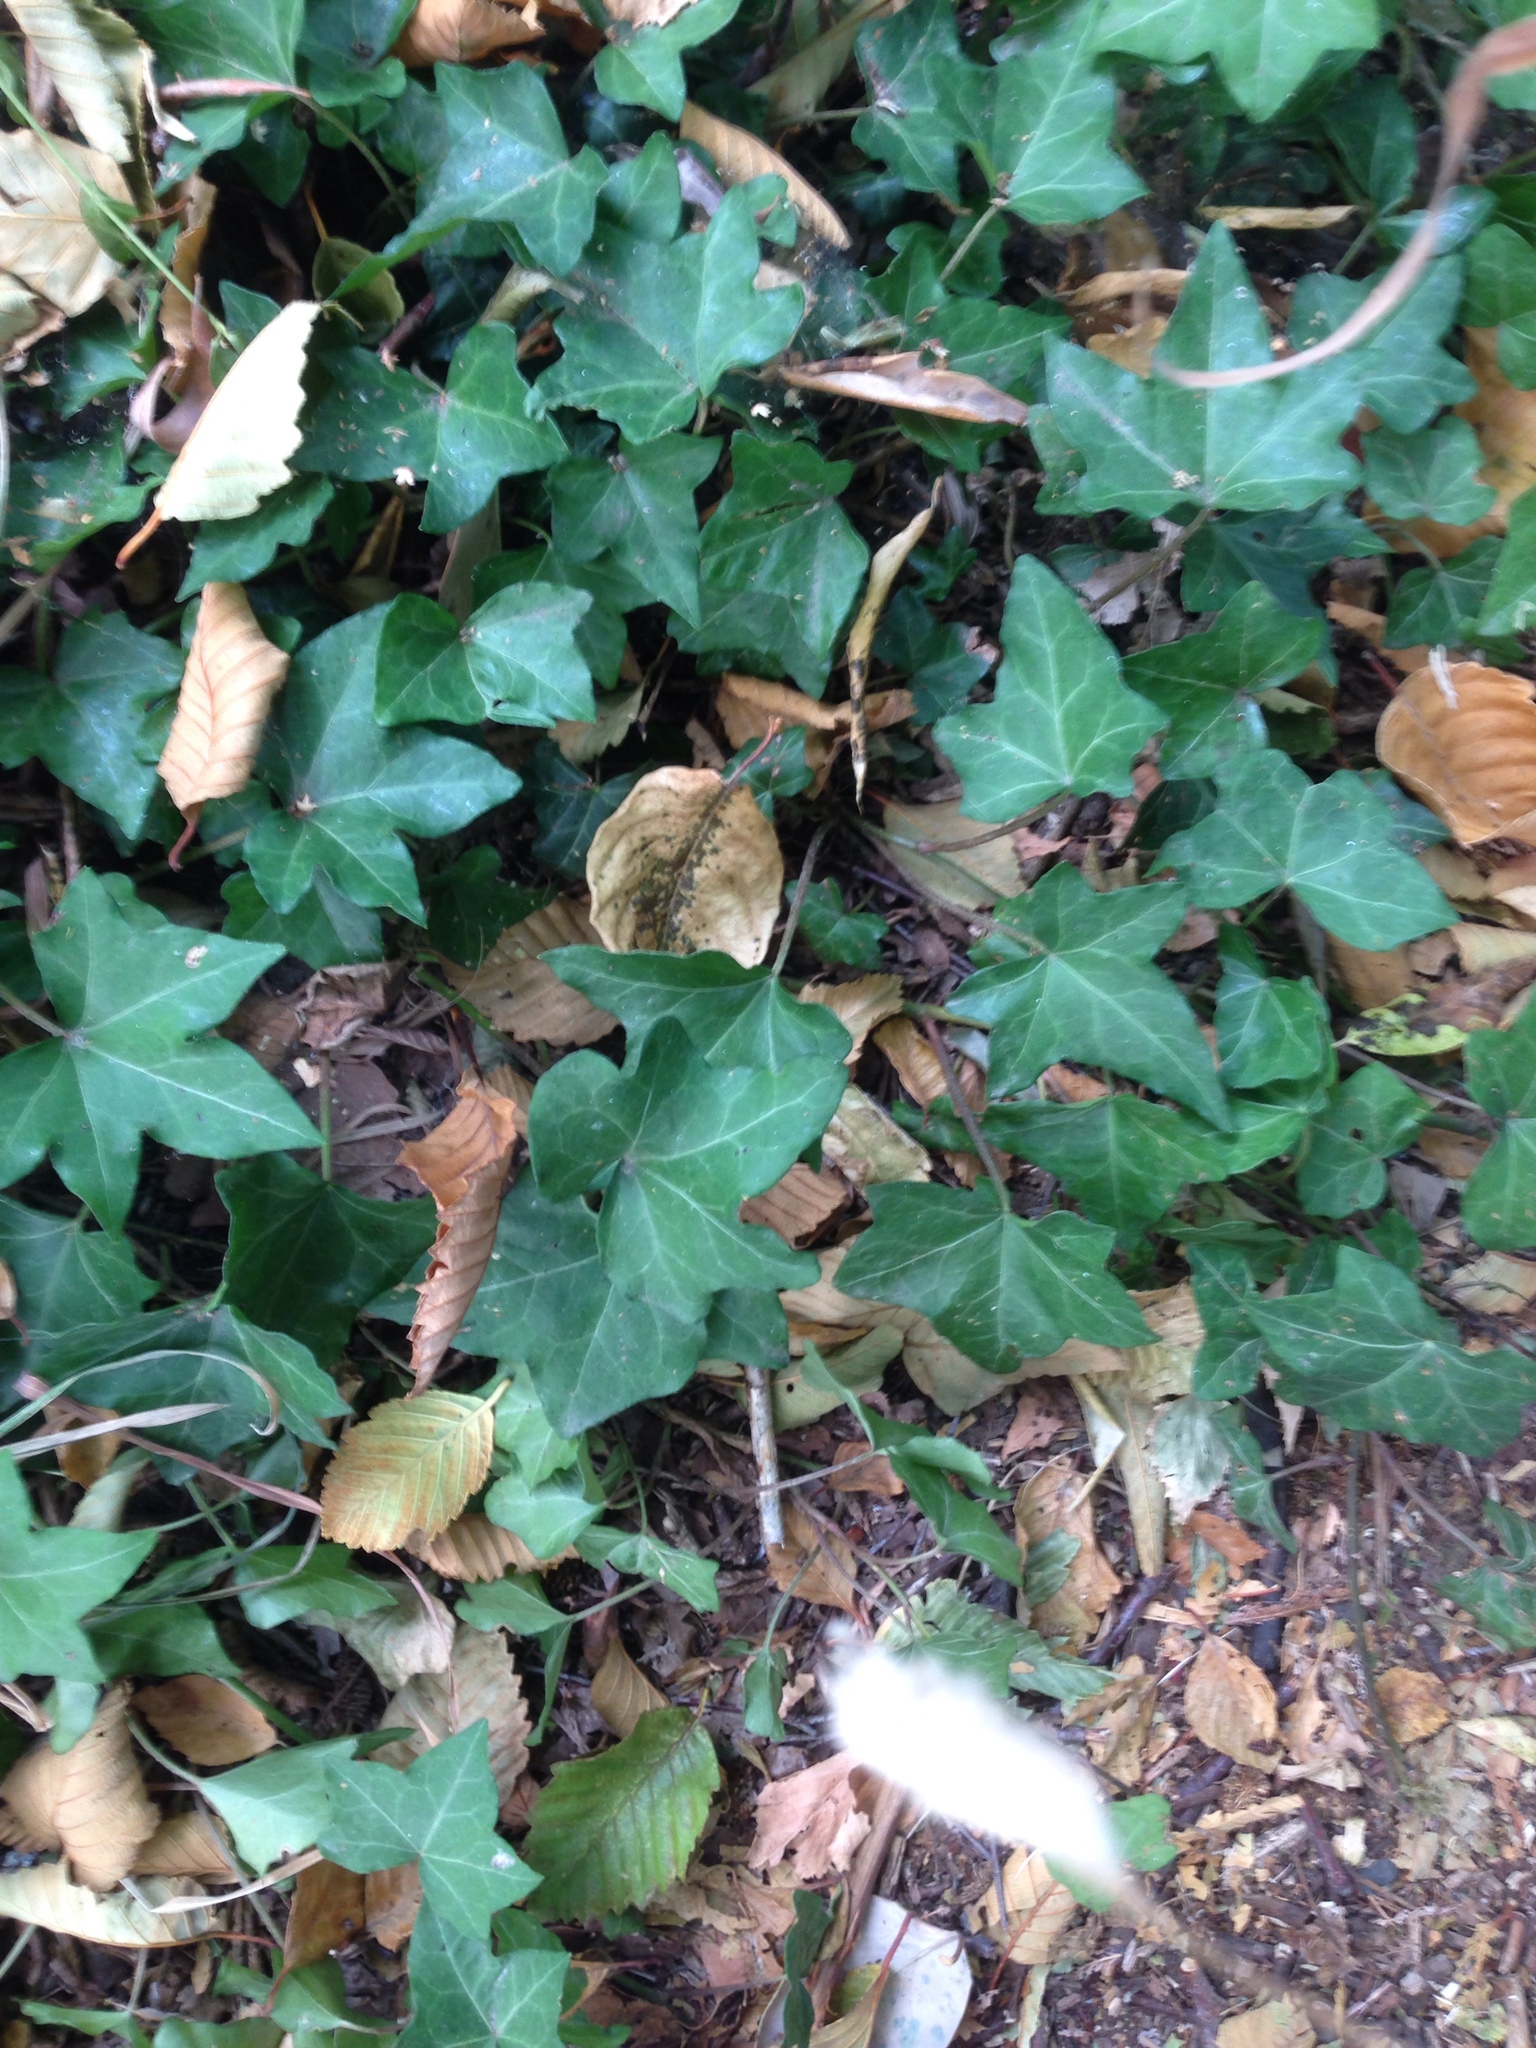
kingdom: Plantae
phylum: Tracheophyta
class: Magnoliopsida
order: Apiales
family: Araliaceae
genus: Hedera
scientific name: Hedera helix
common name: Ivy
